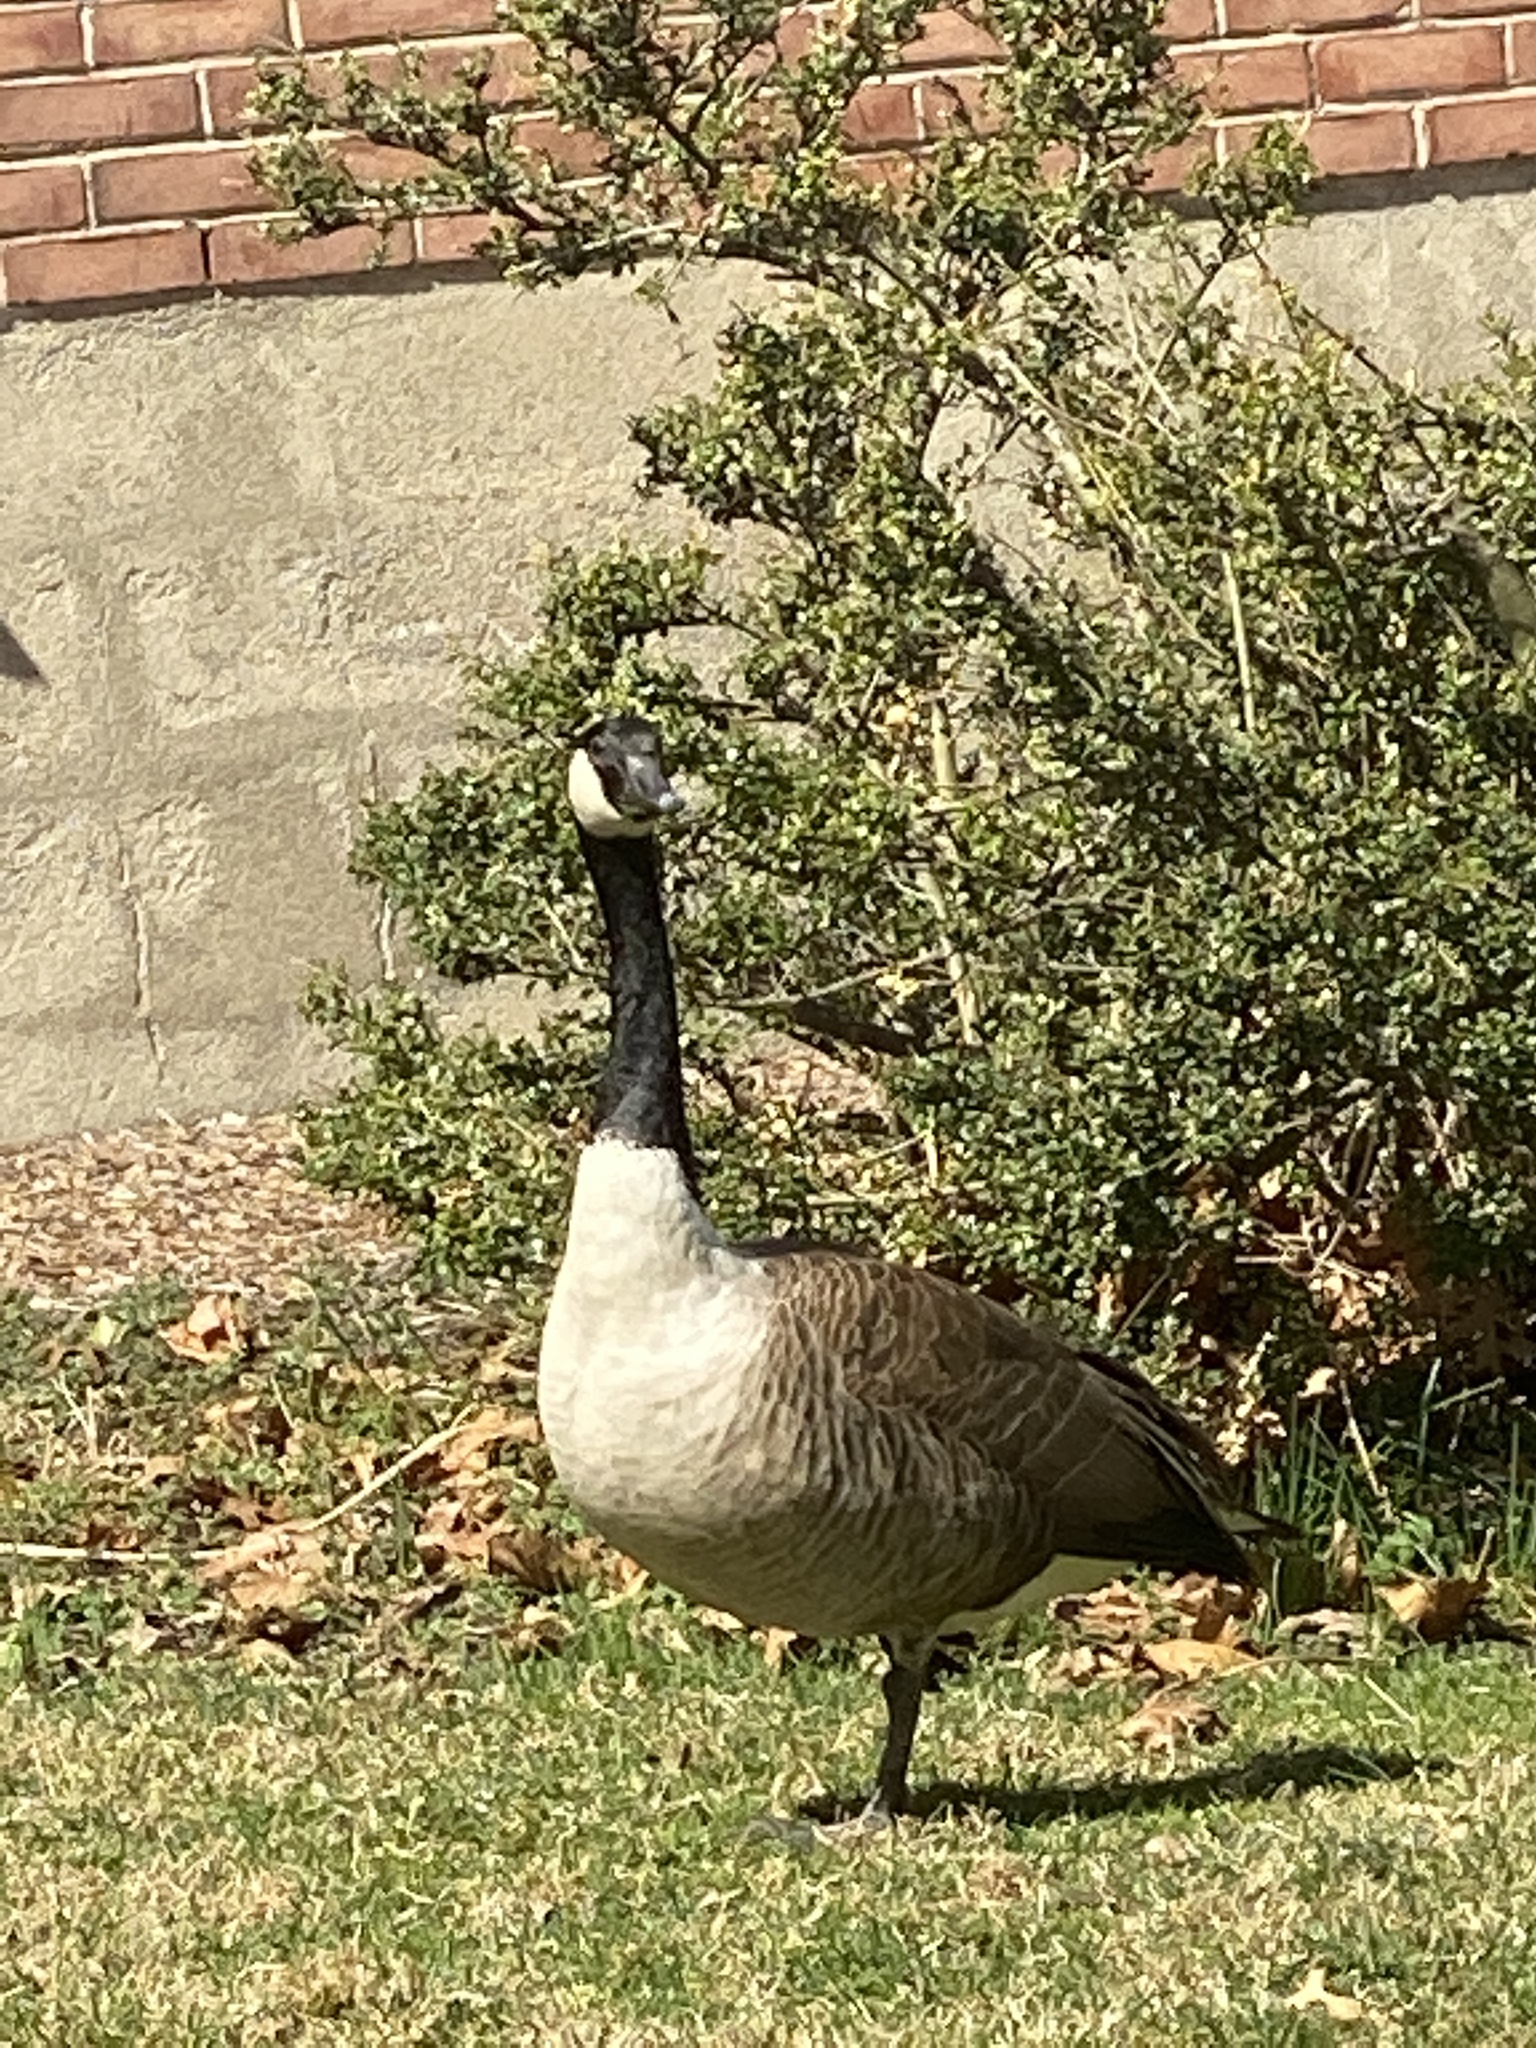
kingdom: Animalia
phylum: Chordata
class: Aves
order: Anseriformes
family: Anatidae
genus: Branta
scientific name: Branta canadensis
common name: Canada goose
